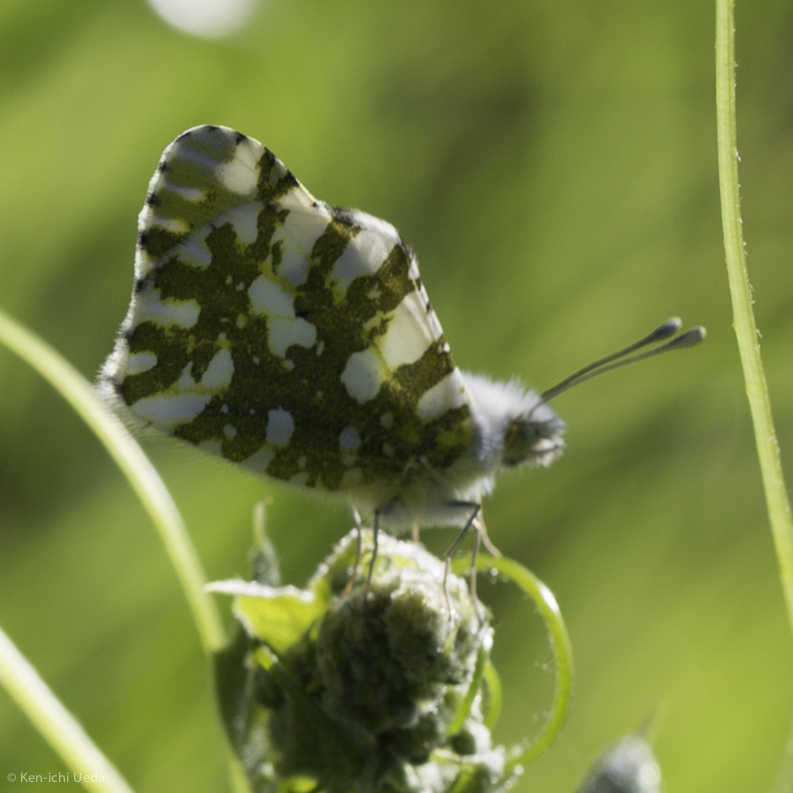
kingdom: Animalia
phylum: Arthropoda
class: Insecta
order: Lepidoptera
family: Pieridae
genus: Euchloe
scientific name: Euchloe ausonides
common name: Creamy marblewing
